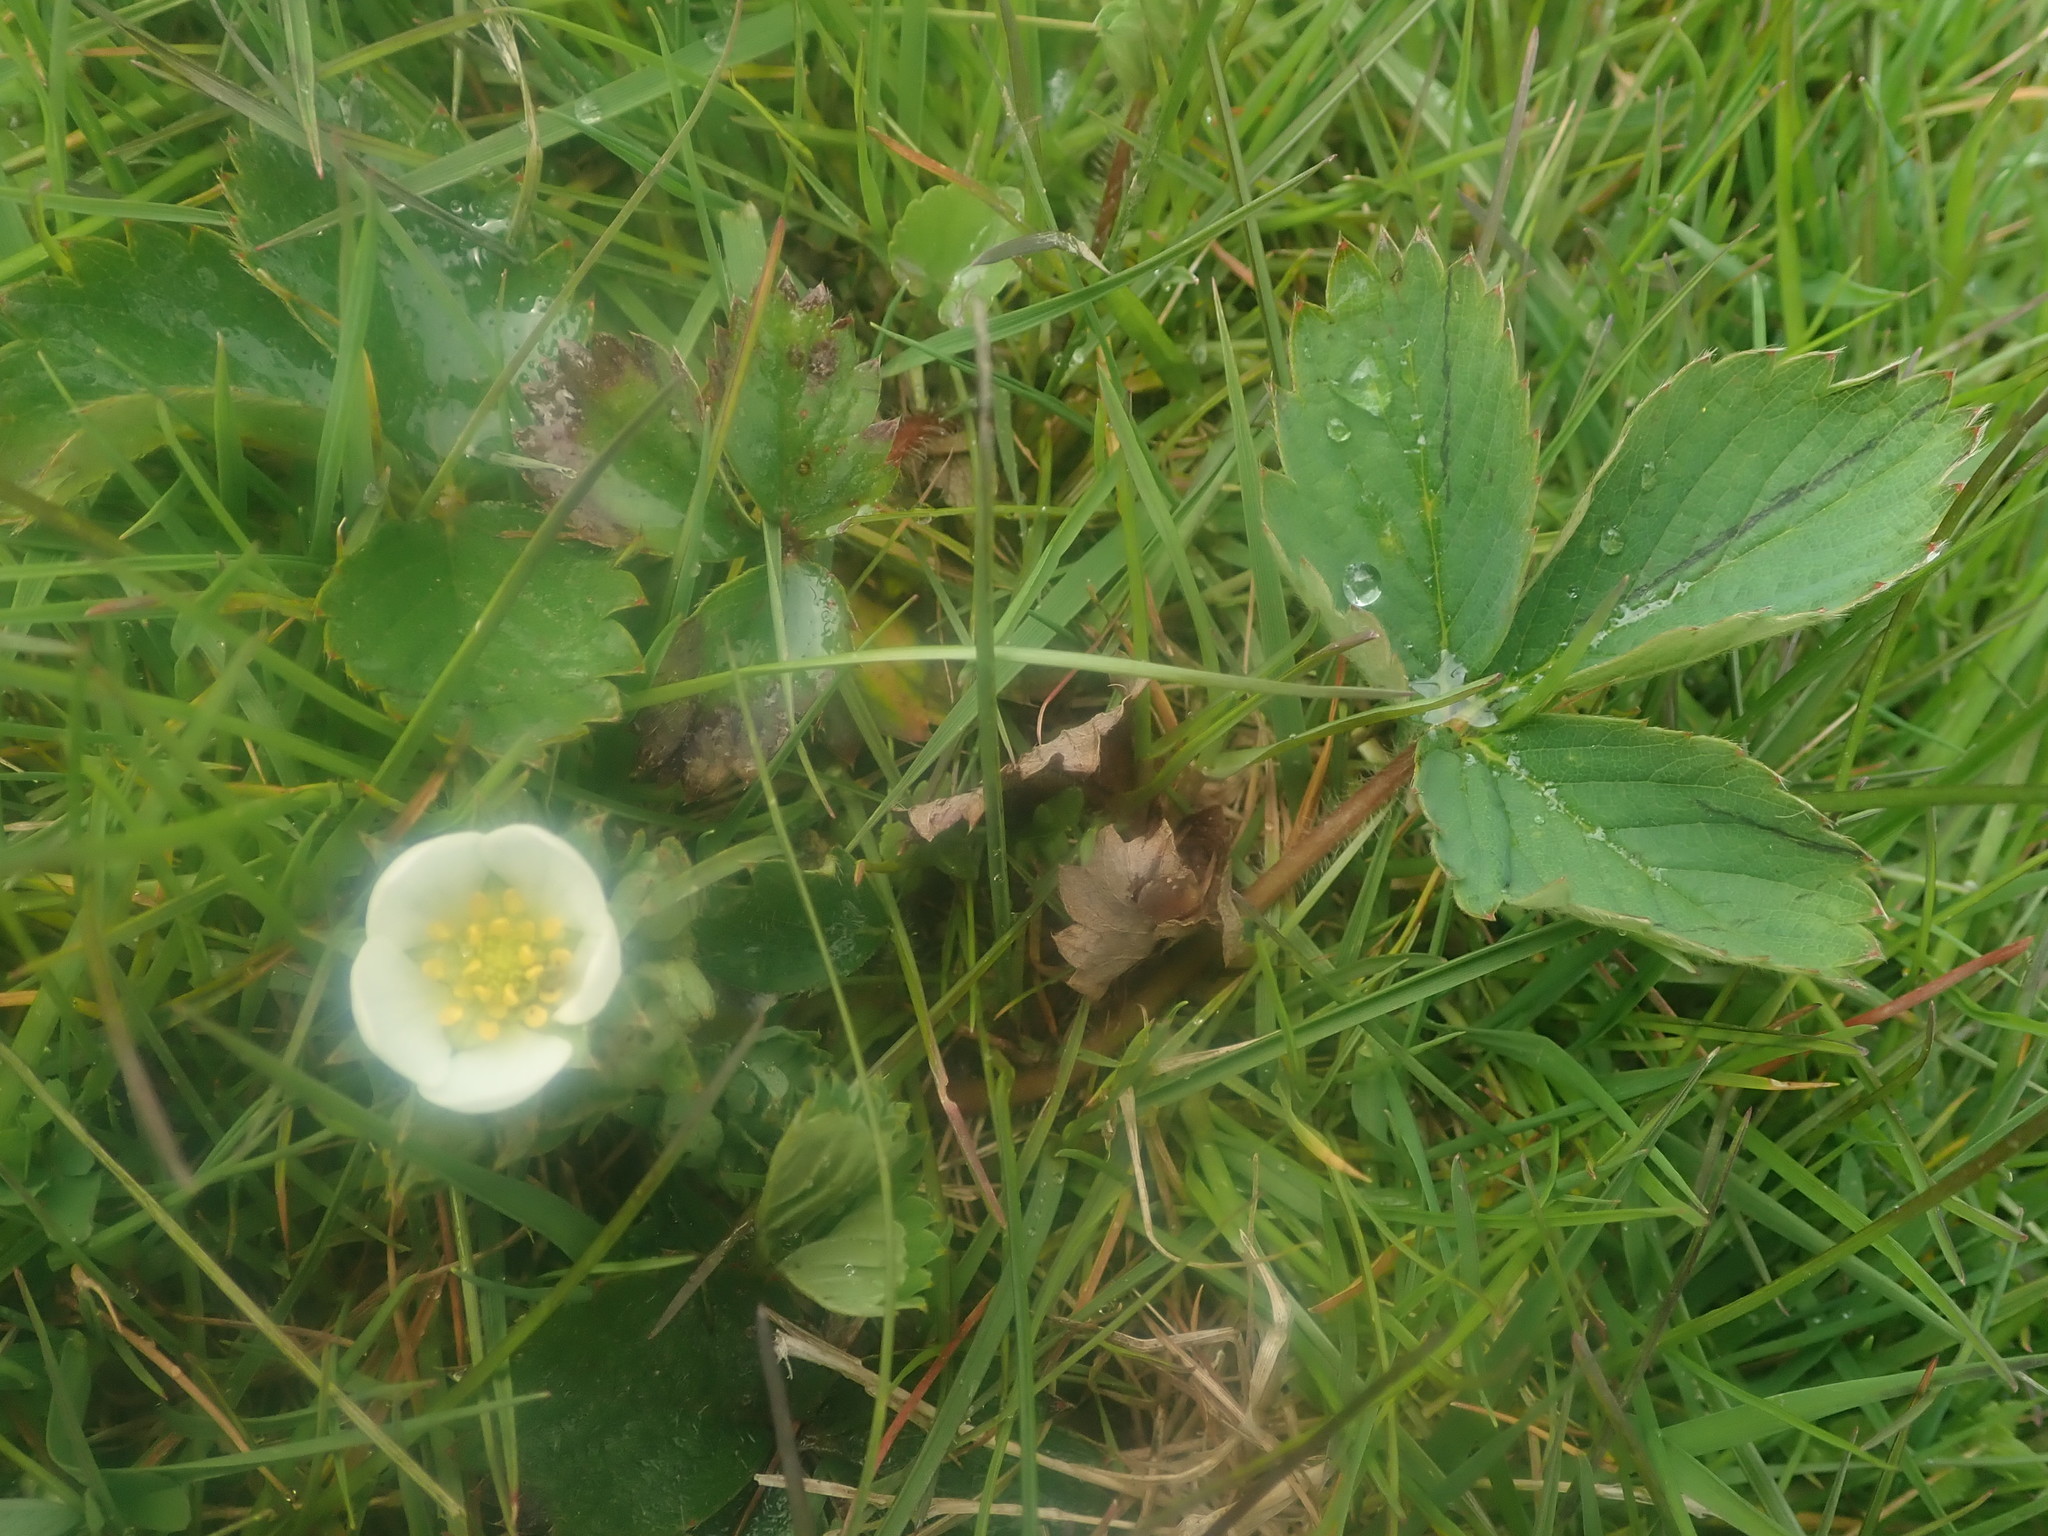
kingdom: Plantae
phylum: Tracheophyta
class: Magnoliopsida
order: Rosales
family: Rosaceae
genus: Fragaria
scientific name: Fragaria virginiana
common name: Thickleaved wild strawberry
